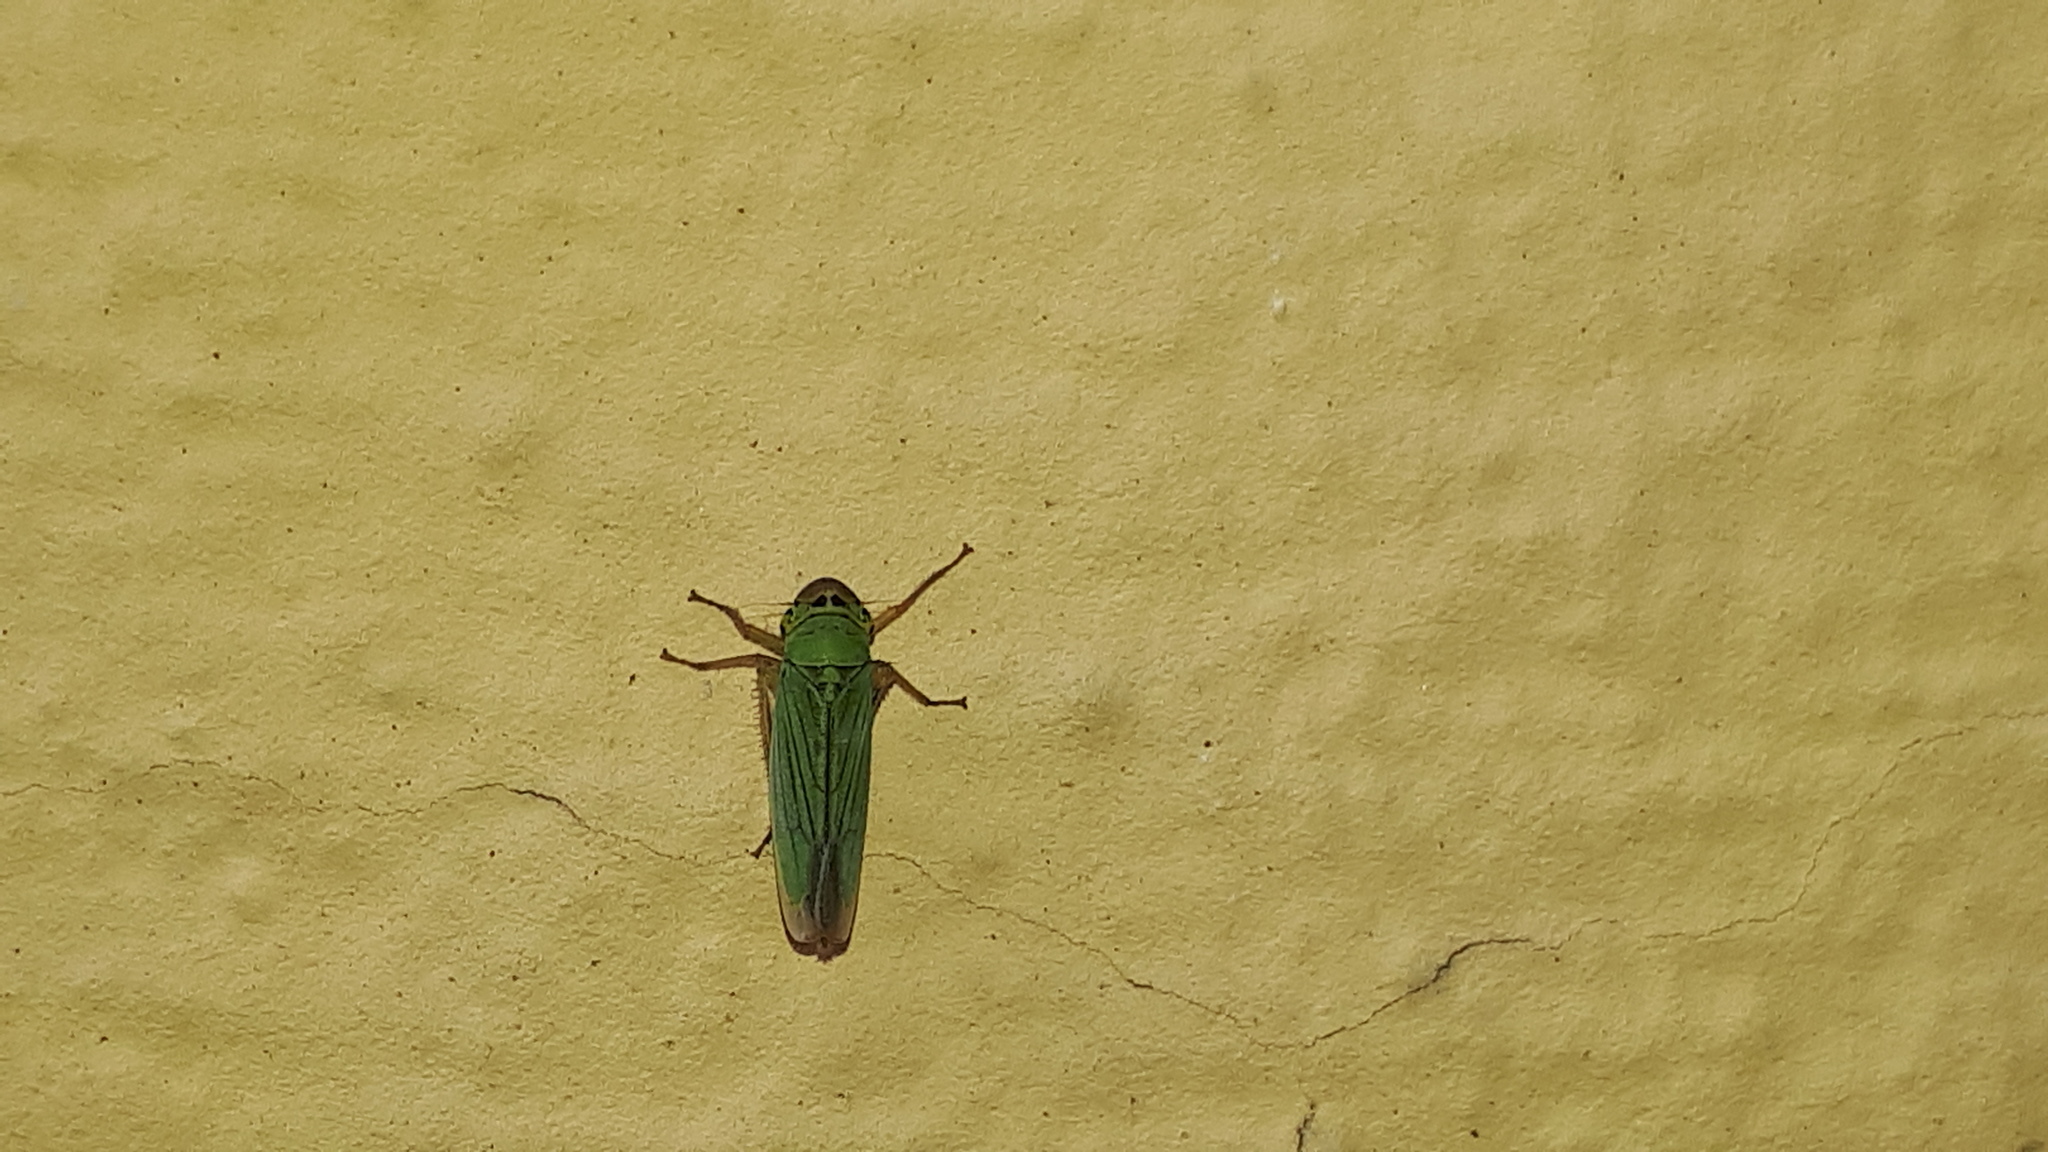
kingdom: Animalia
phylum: Arthropoda
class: Insecta
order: Hemiptera
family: Cicadellidae
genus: Cicadella
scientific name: Cicadella viridis
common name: Leafhopper
